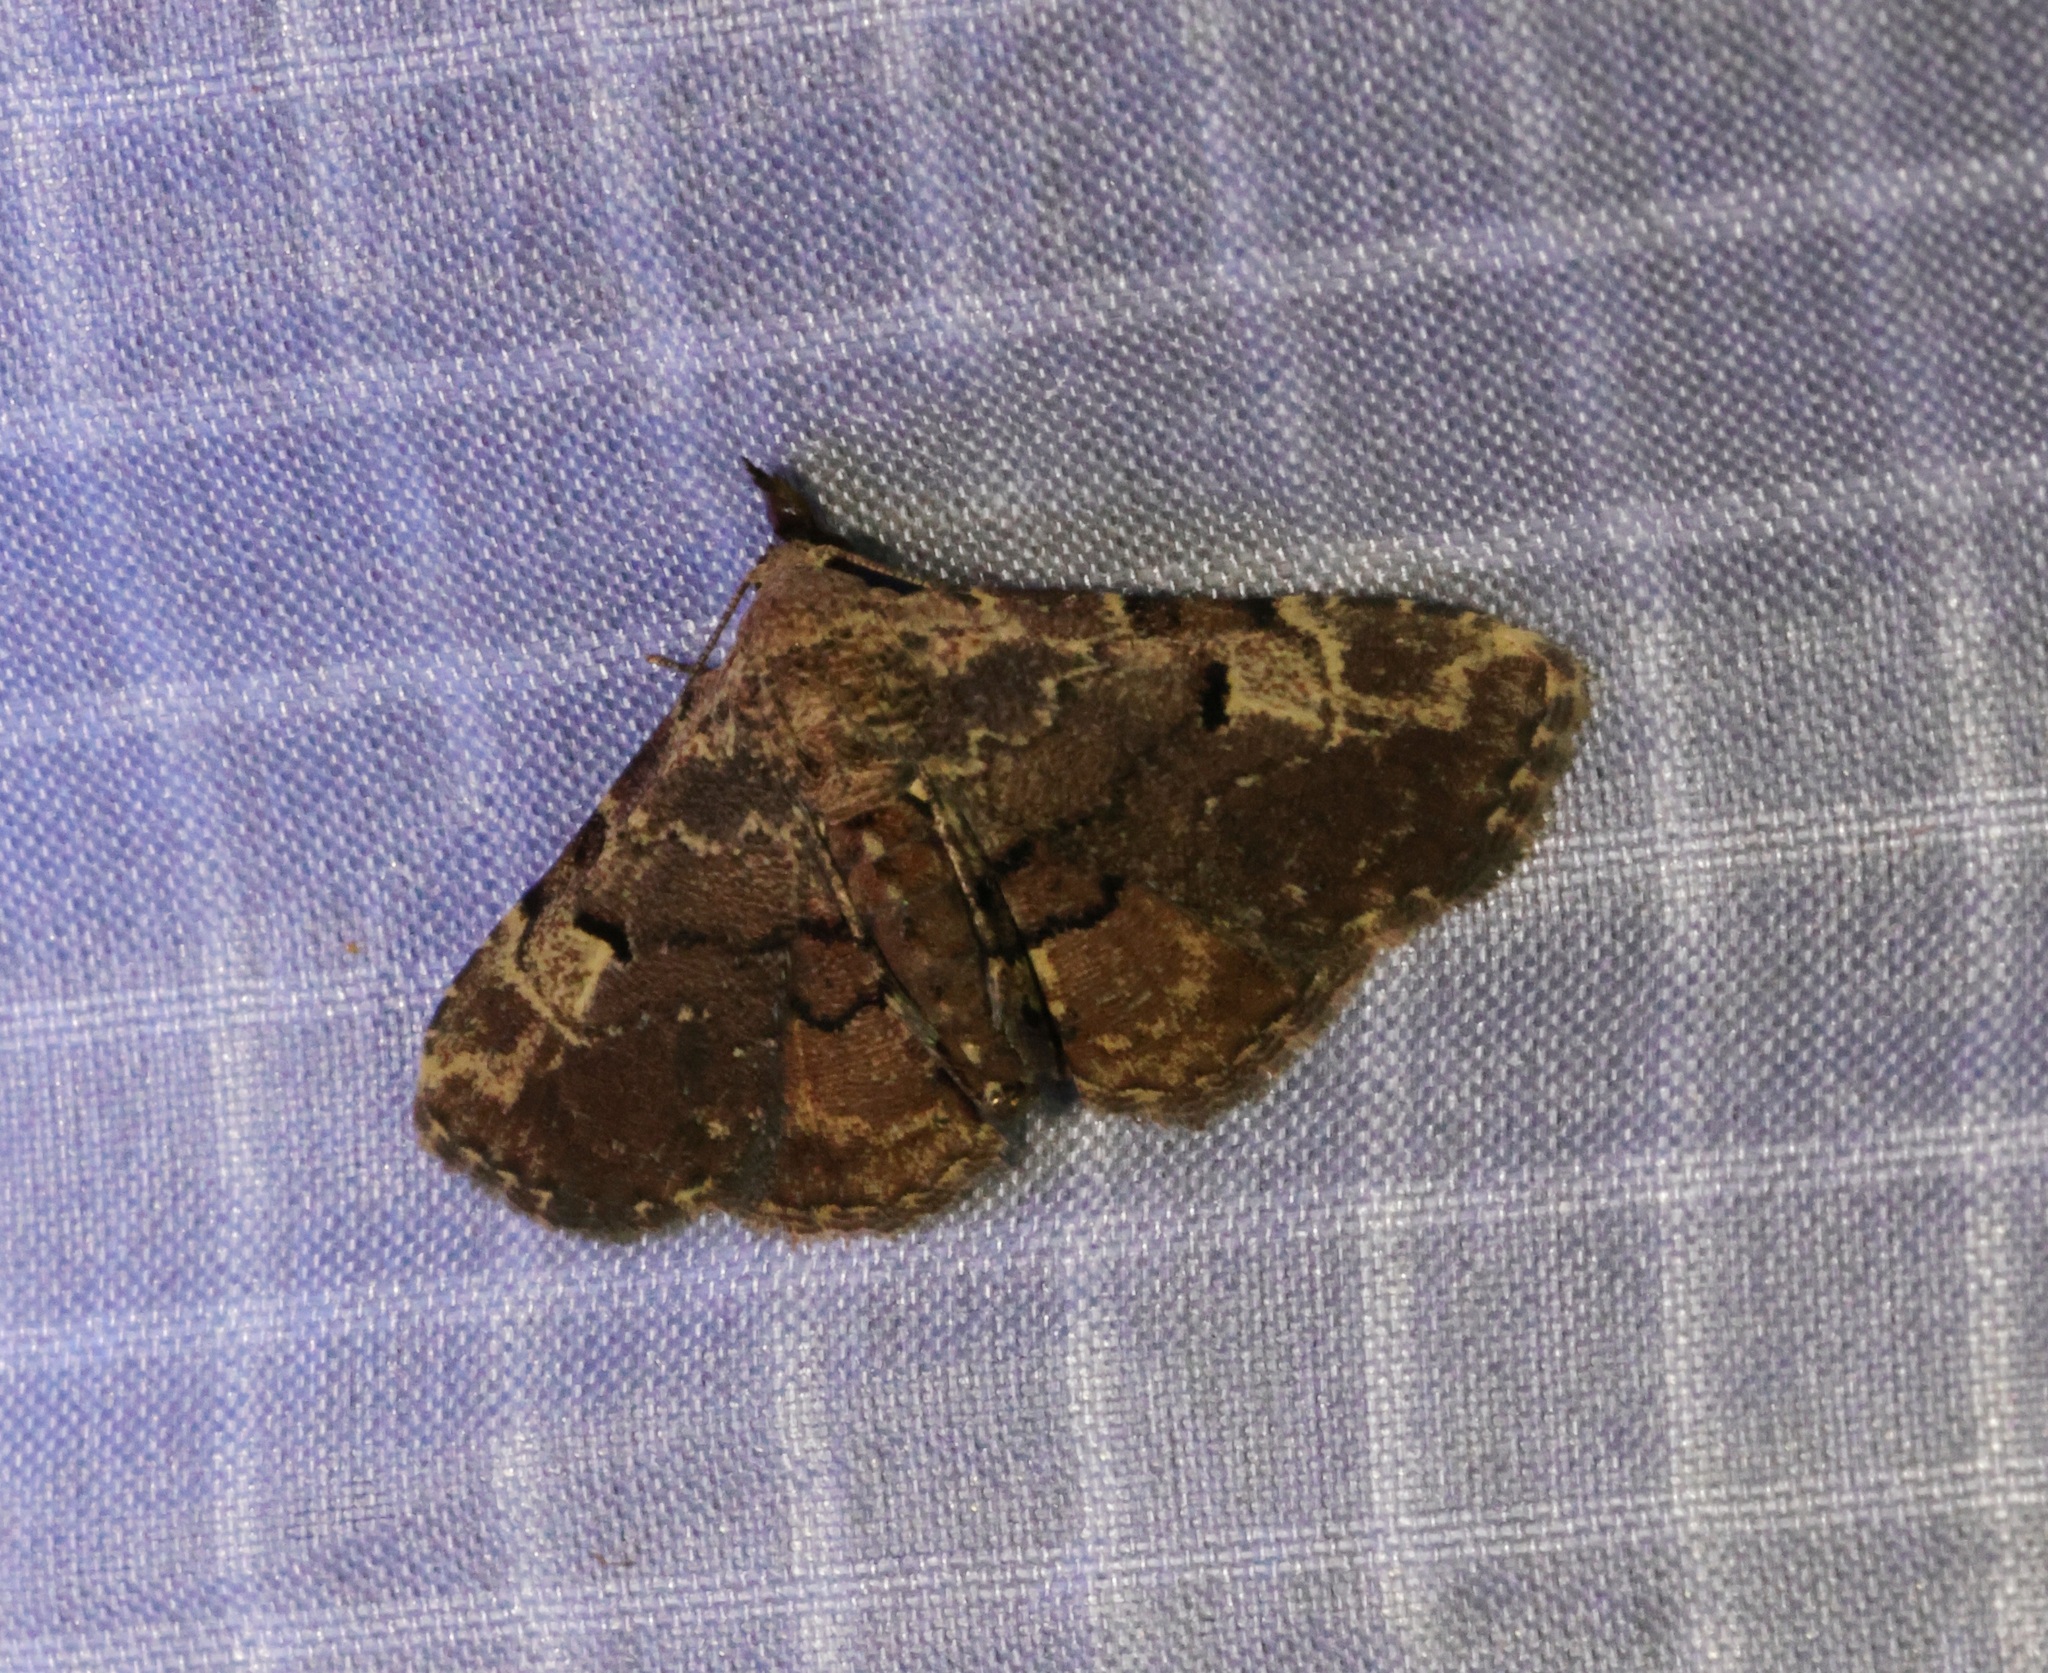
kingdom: Animalia
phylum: Arthropoda
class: Insecta
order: Lepidoptera
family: Erebidae
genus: Maguda
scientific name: Maguda suffusa
